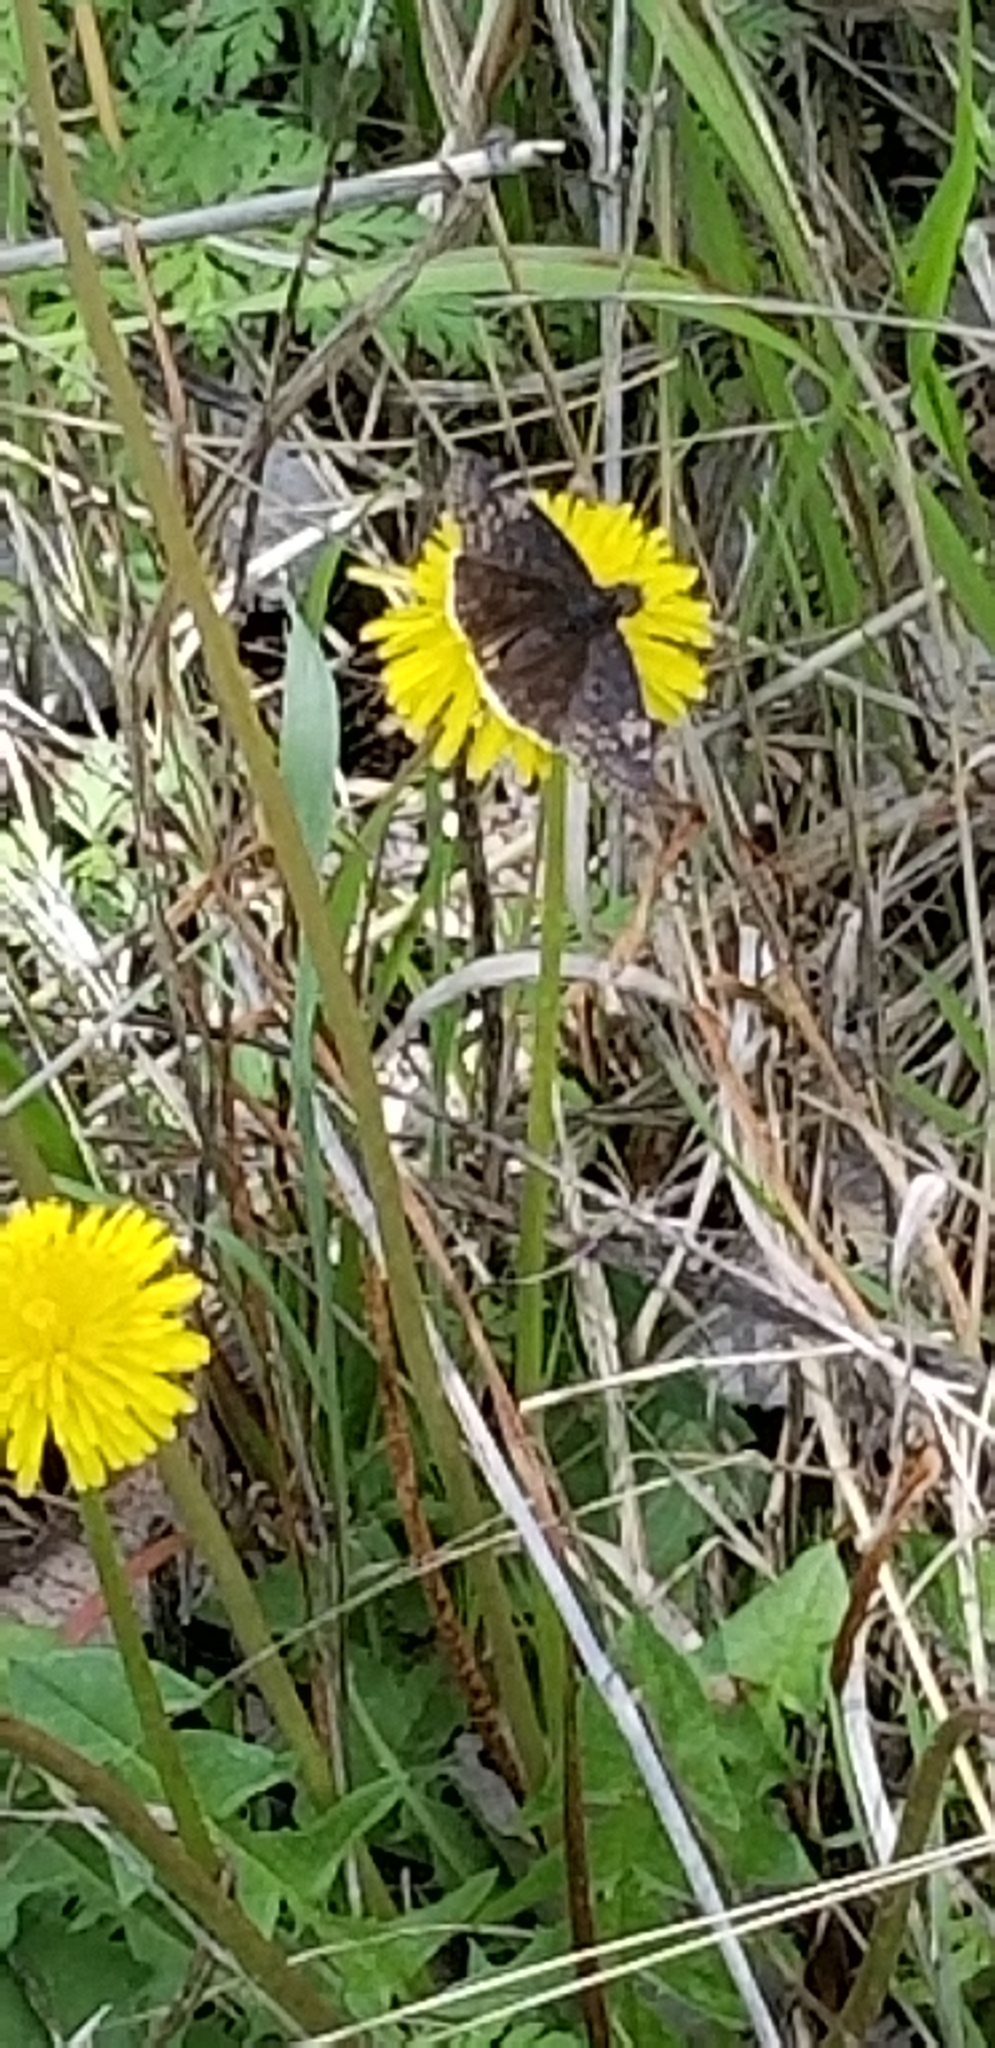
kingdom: Animalia
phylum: Arthropoda
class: Insecta
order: Lepidoptera
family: Hesperiidae
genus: Erynnis
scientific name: Erynnis funeralis
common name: Funereal duskywing
